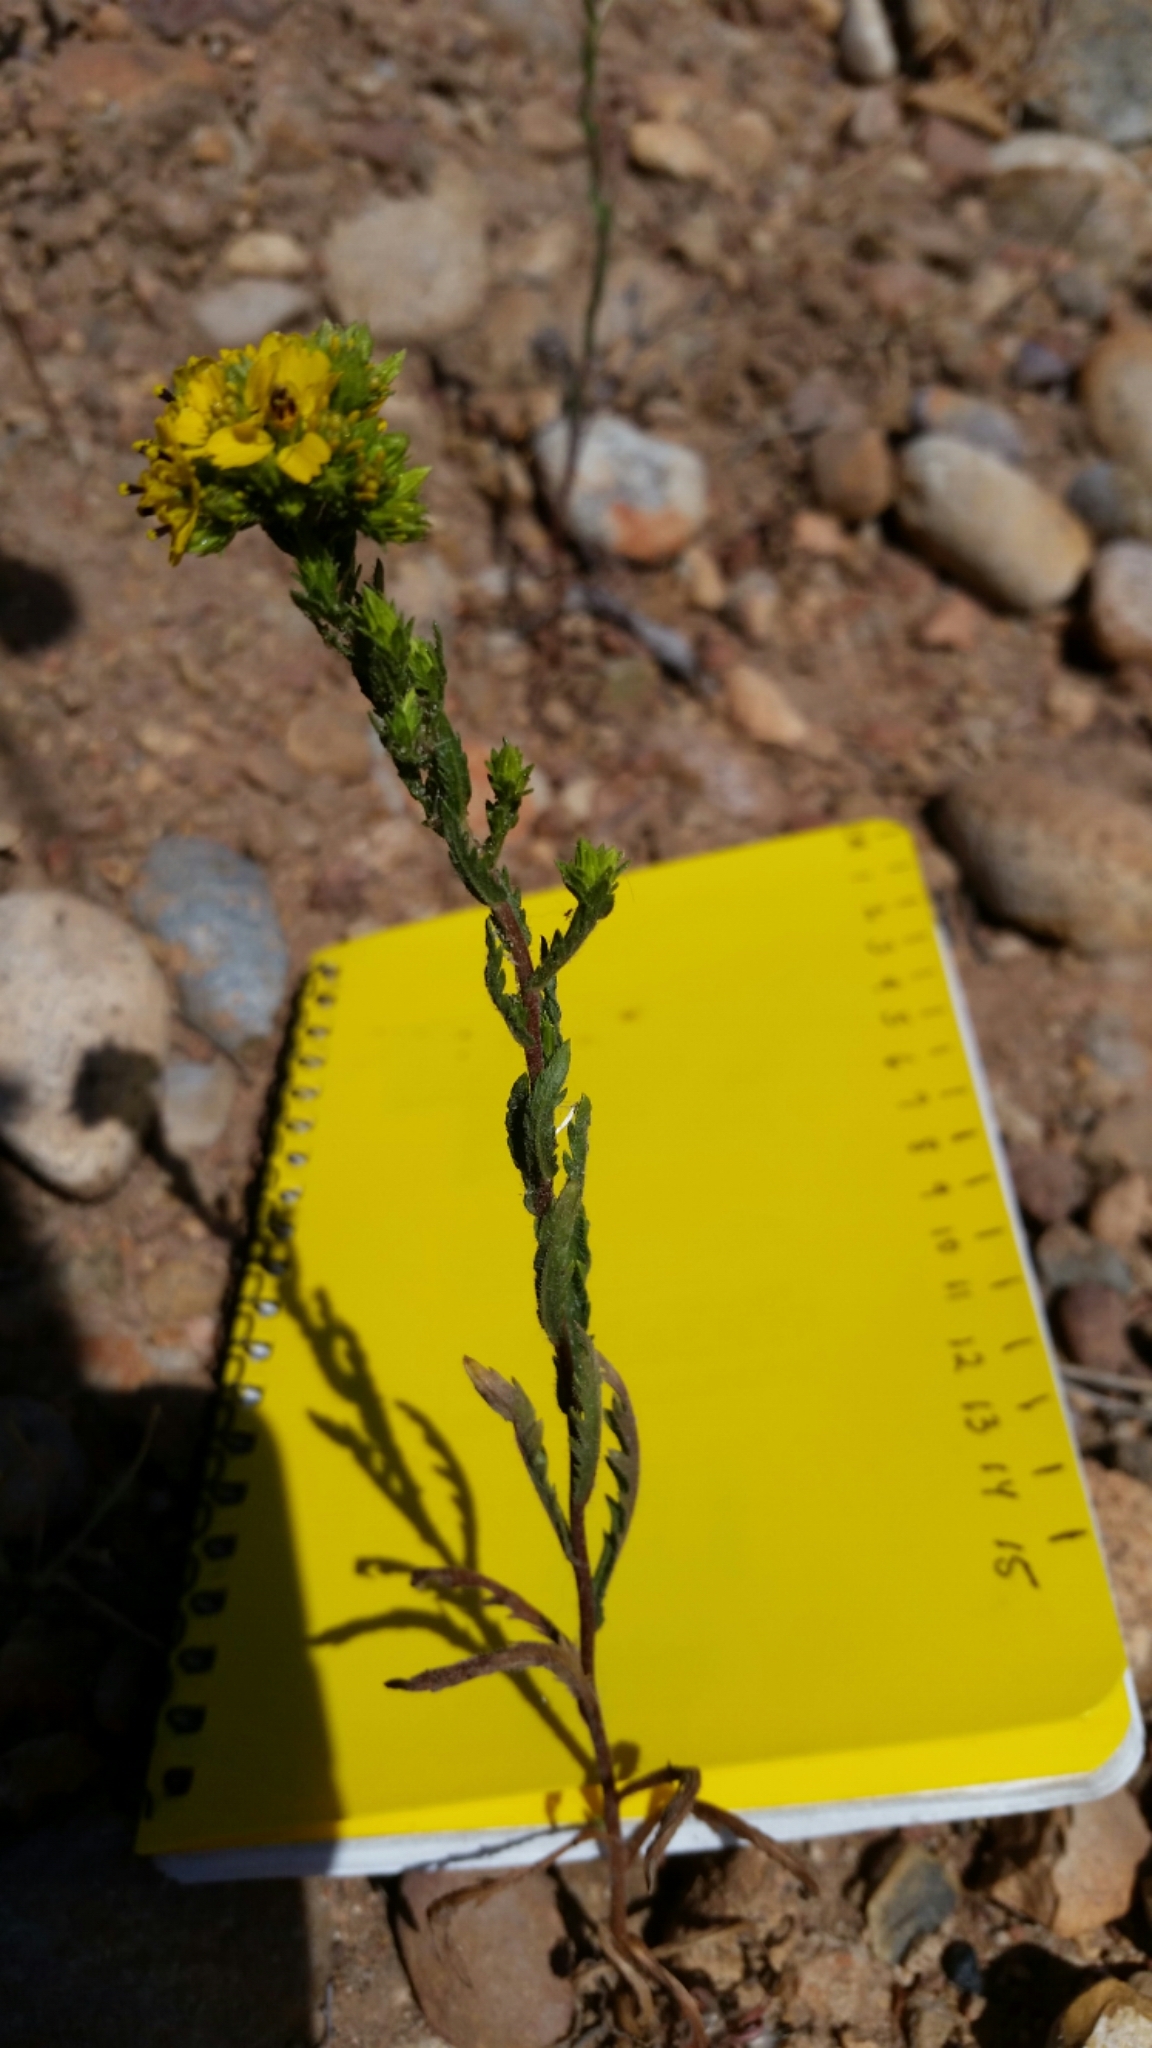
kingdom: Plantae
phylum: Tracheophyta
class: Magnoliopsida
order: Asterales
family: Asteraceae
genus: Deinandra
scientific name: Deinandra fasciculata
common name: Clustered tarweed
